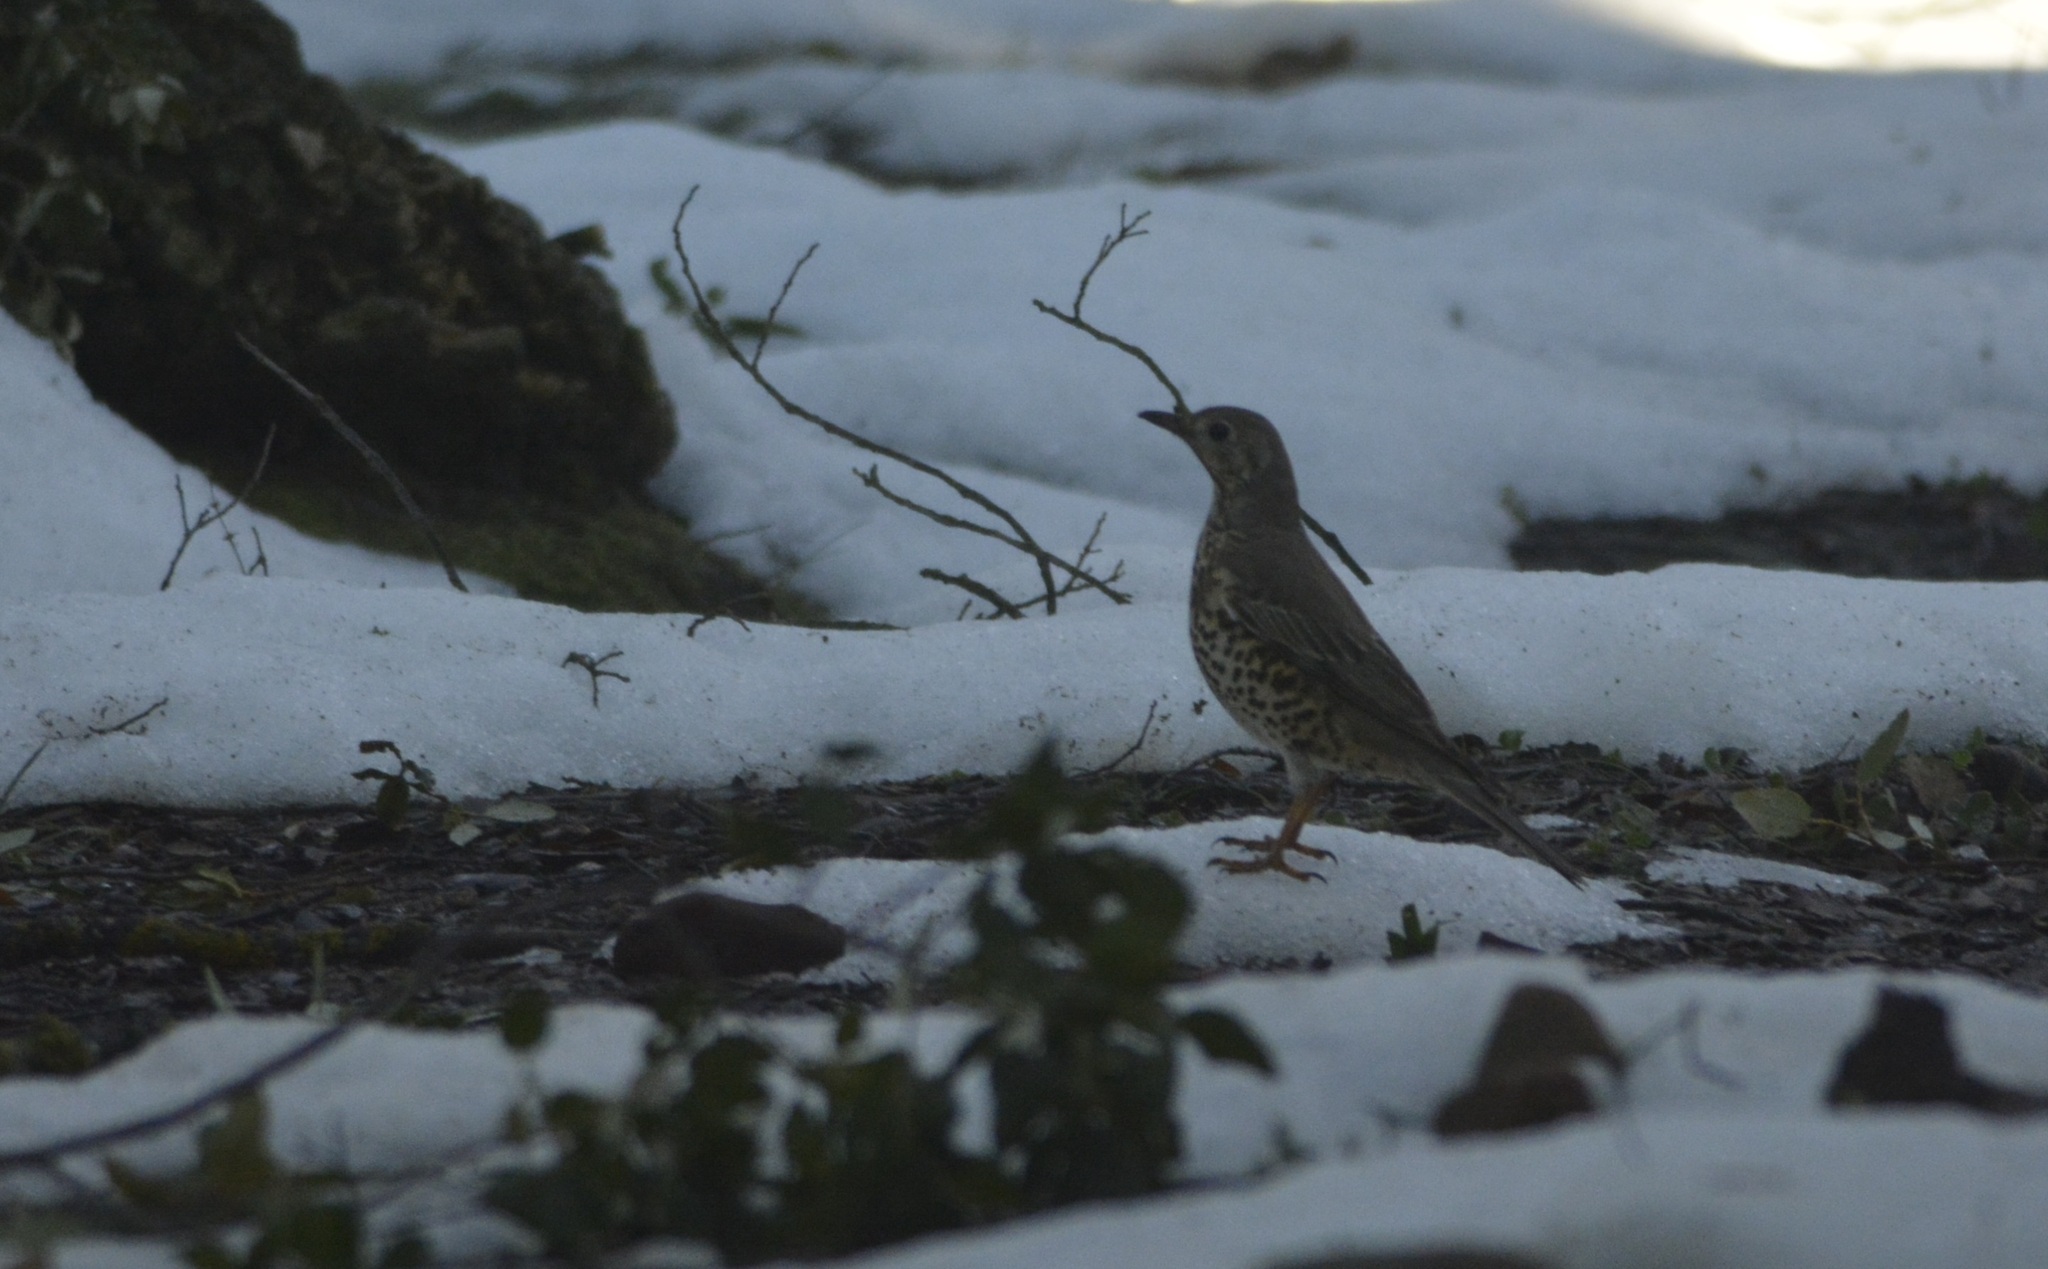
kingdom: Animalia
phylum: Chordata
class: Aves
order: Passeriformes
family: Turdidae
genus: Turdus
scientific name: Turdus viscivorus
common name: Mistle thrush
